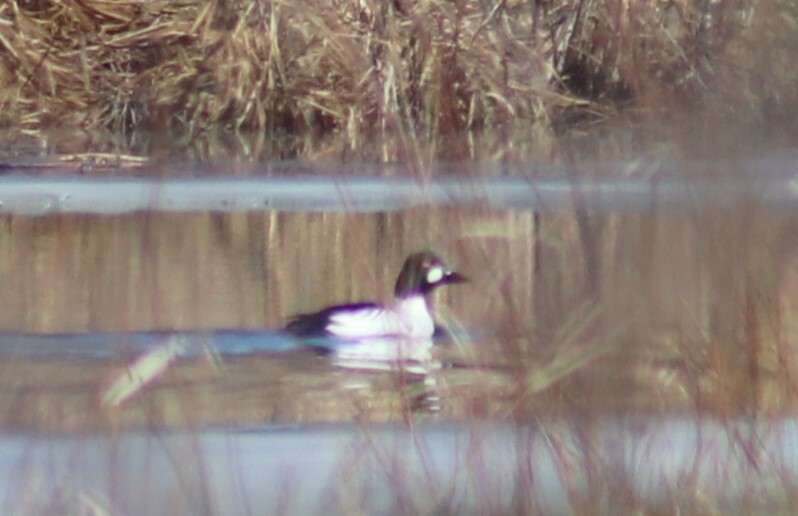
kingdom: Animalia
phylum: Chordata
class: Aves
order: Anseriformes
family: Anatidae
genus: Bucephala
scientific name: Bucephala clangula
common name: Common goldeneye
